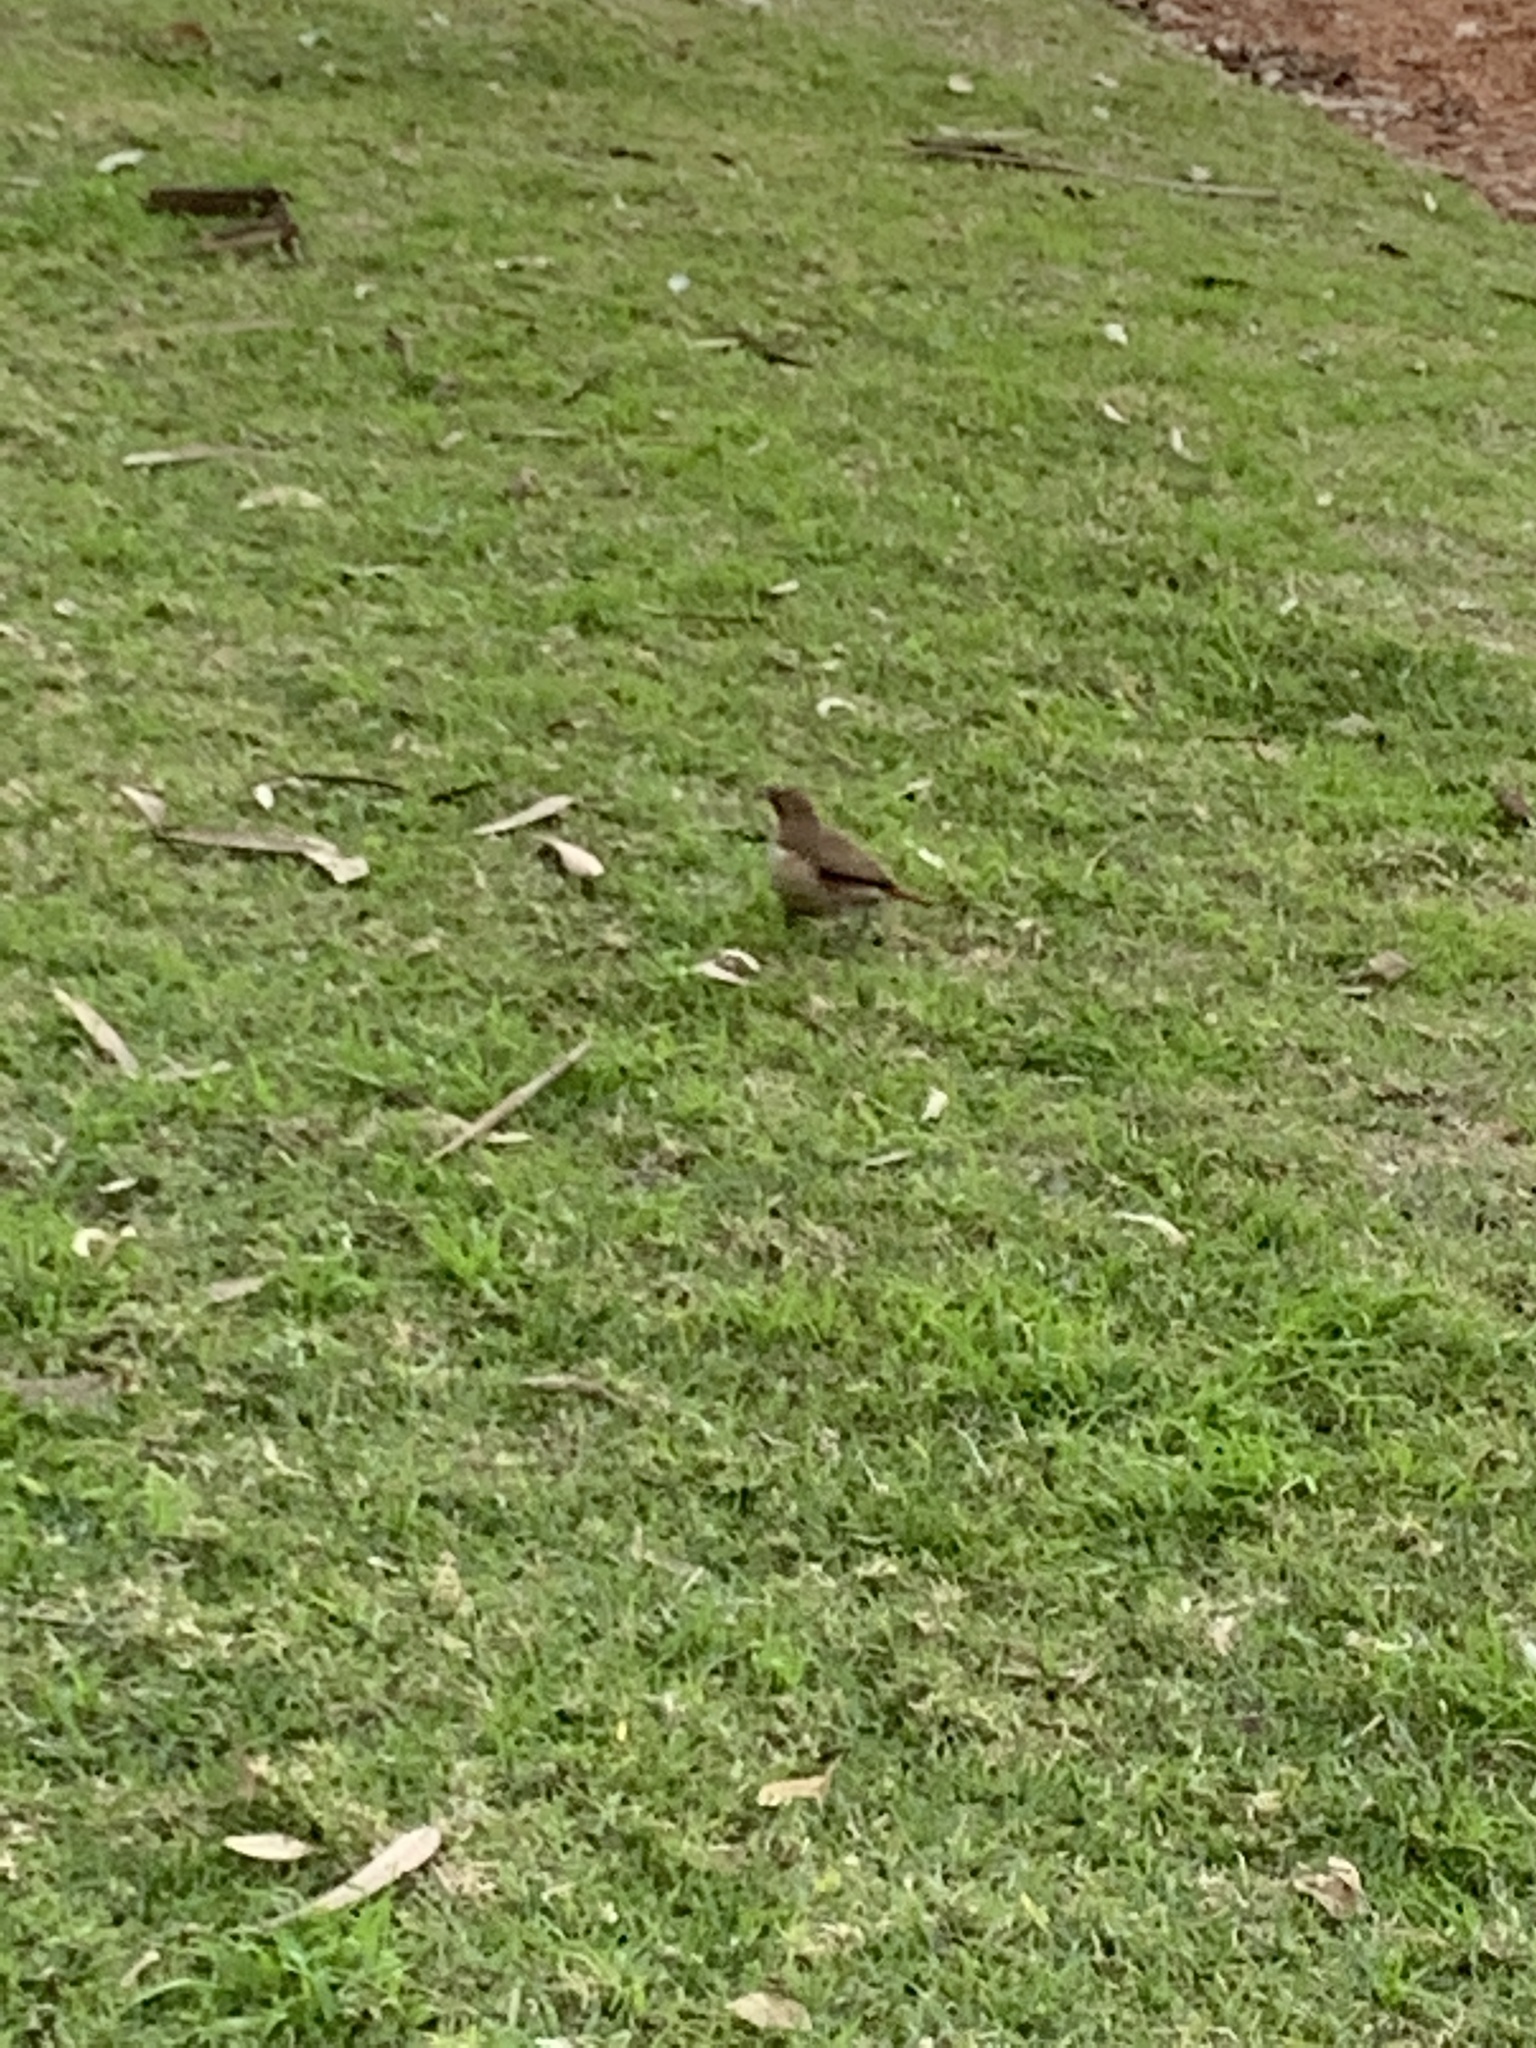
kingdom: Animalia
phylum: Chordata
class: Aves
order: Passeriformes
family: Furnariidae
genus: Furnarius
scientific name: Furnarius rufus
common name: Rufous hornero
